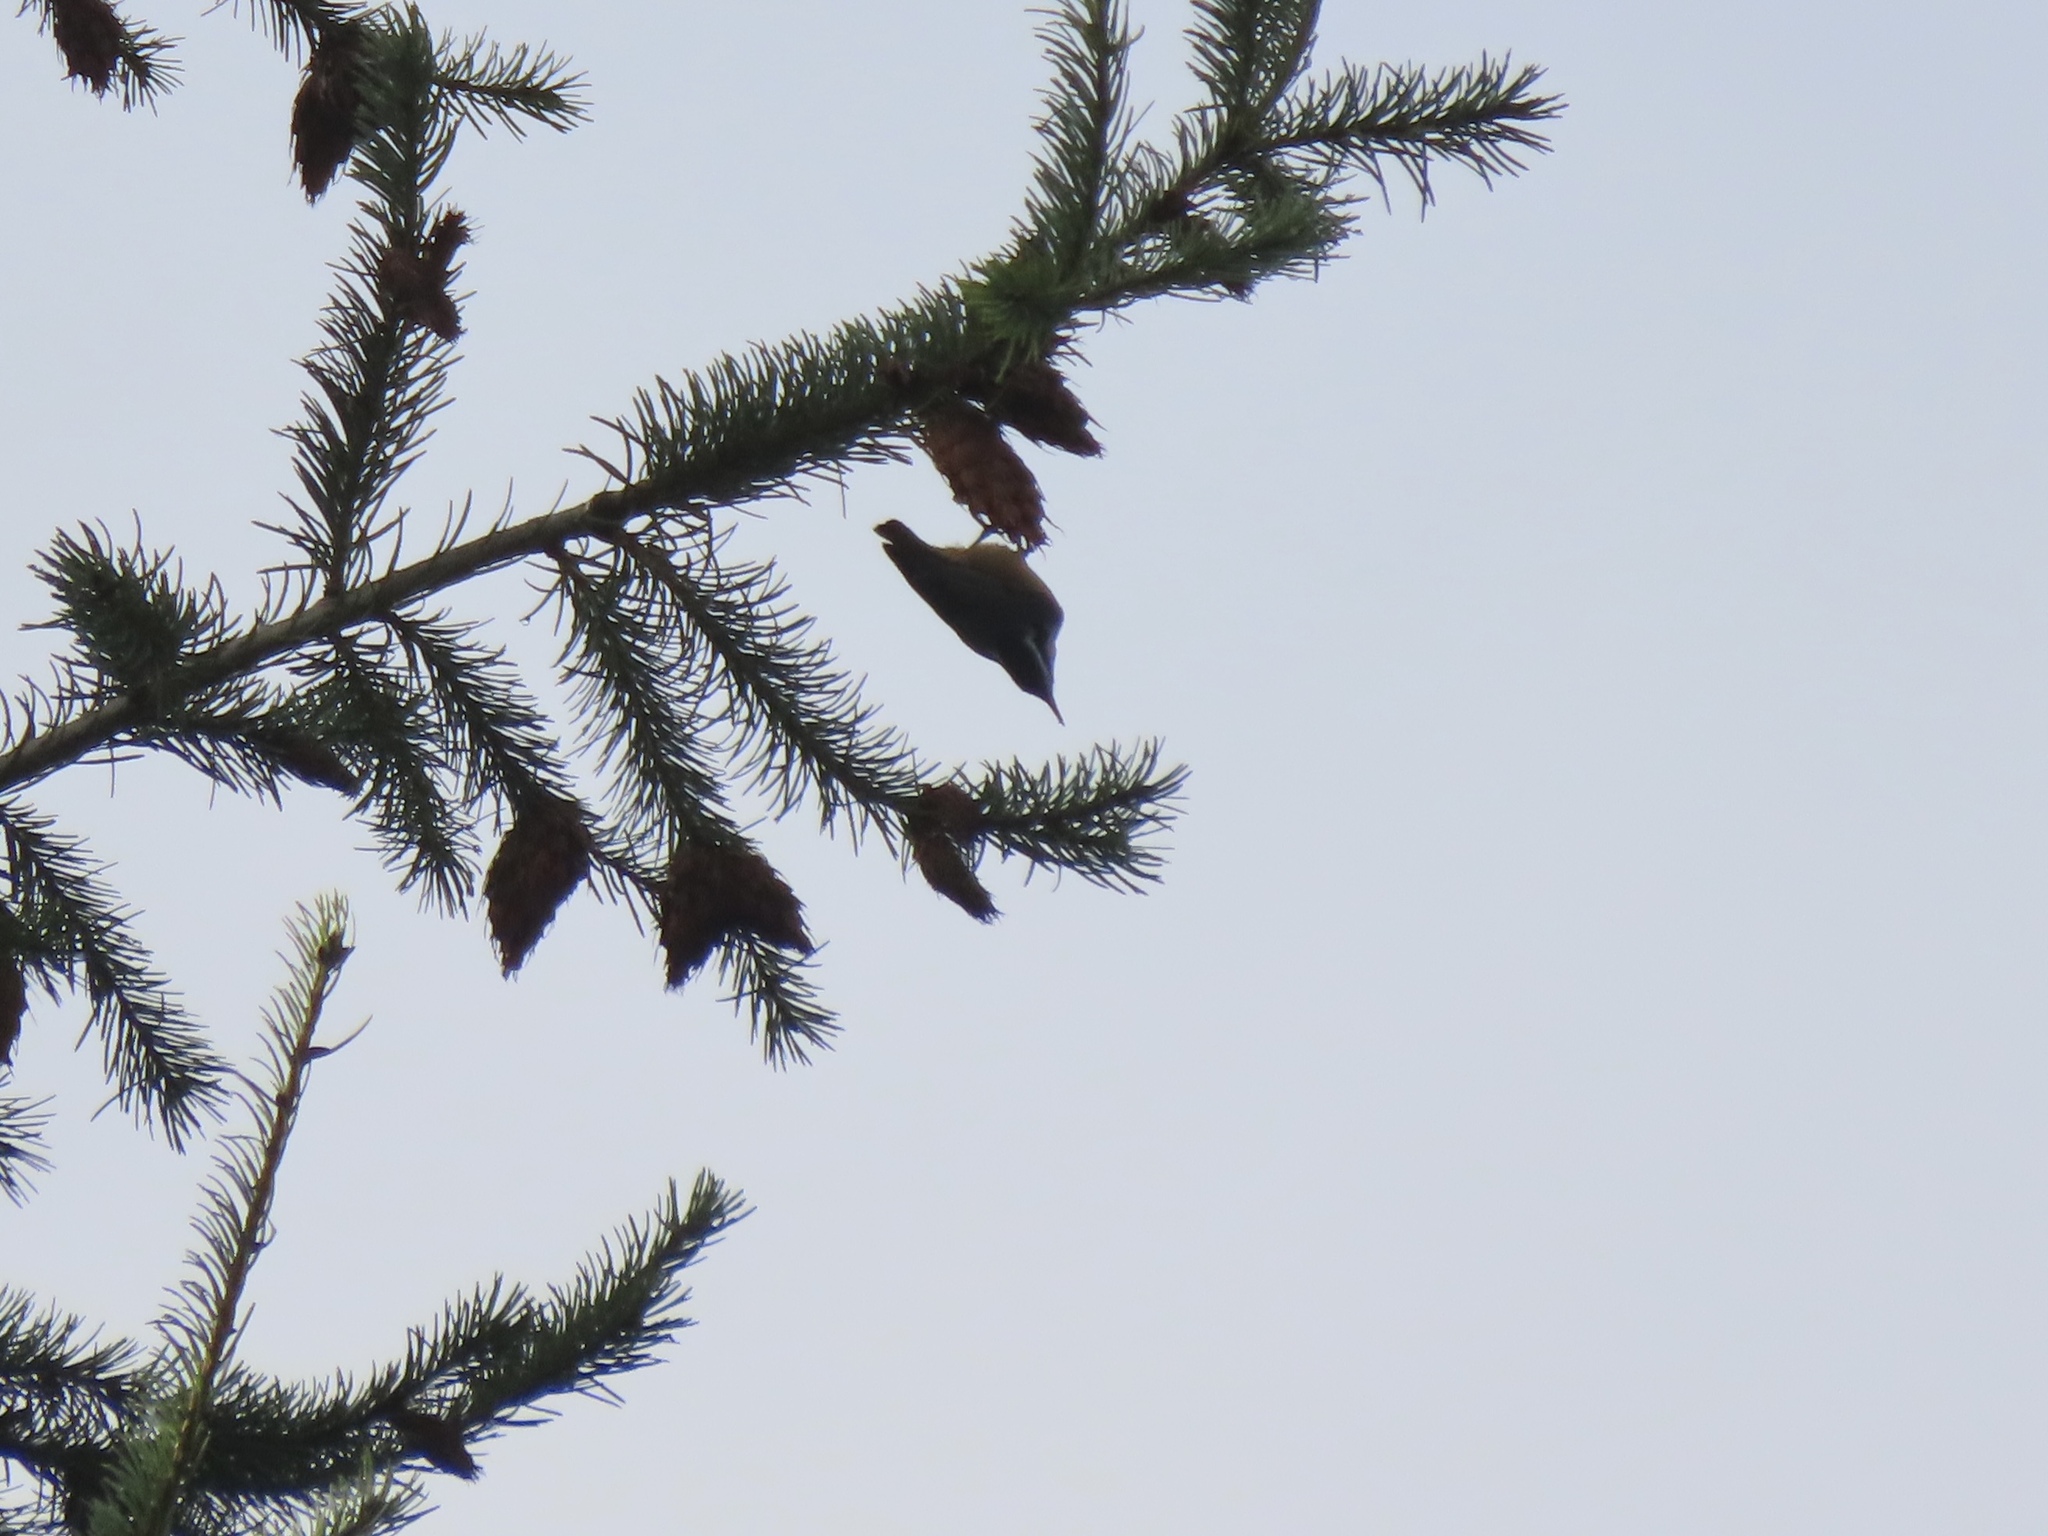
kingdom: Animalia
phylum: Chordata
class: Aves
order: Passeriformes
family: Sittidae
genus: Sitta
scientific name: Sitta canadensis
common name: Red-breasted nuthatch
